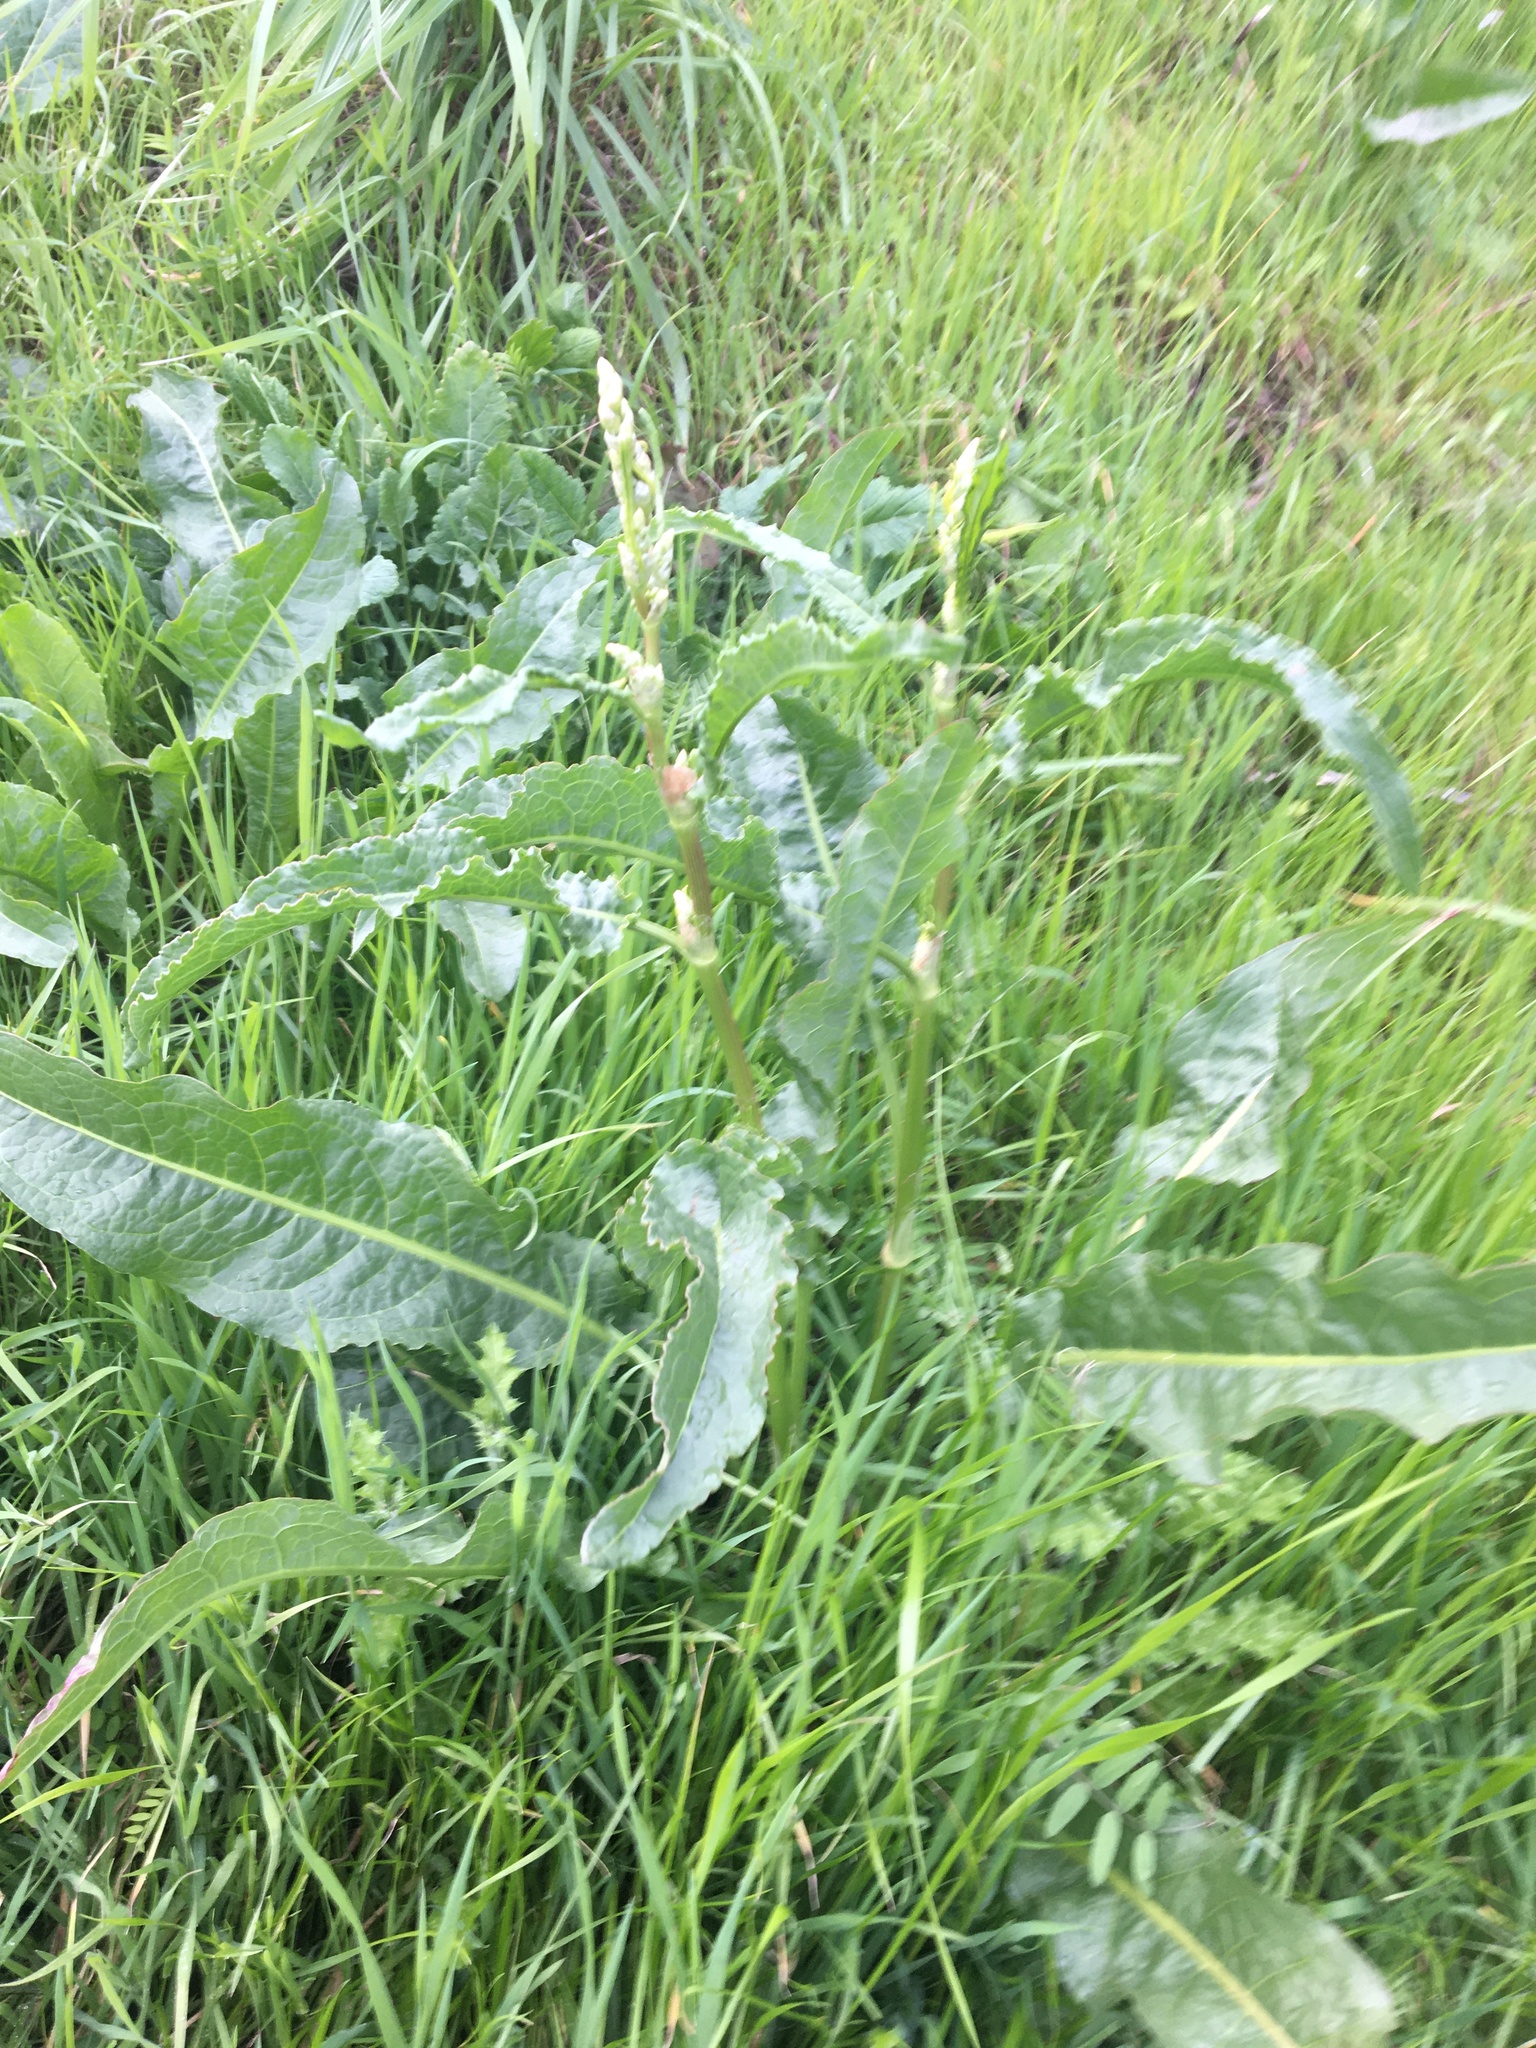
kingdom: Plantae
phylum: Tracheophyta
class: Magnoliopsida
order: Caryophyllales
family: Polygonaceae
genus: Rumex
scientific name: Rumex crispus
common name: Curled dock
